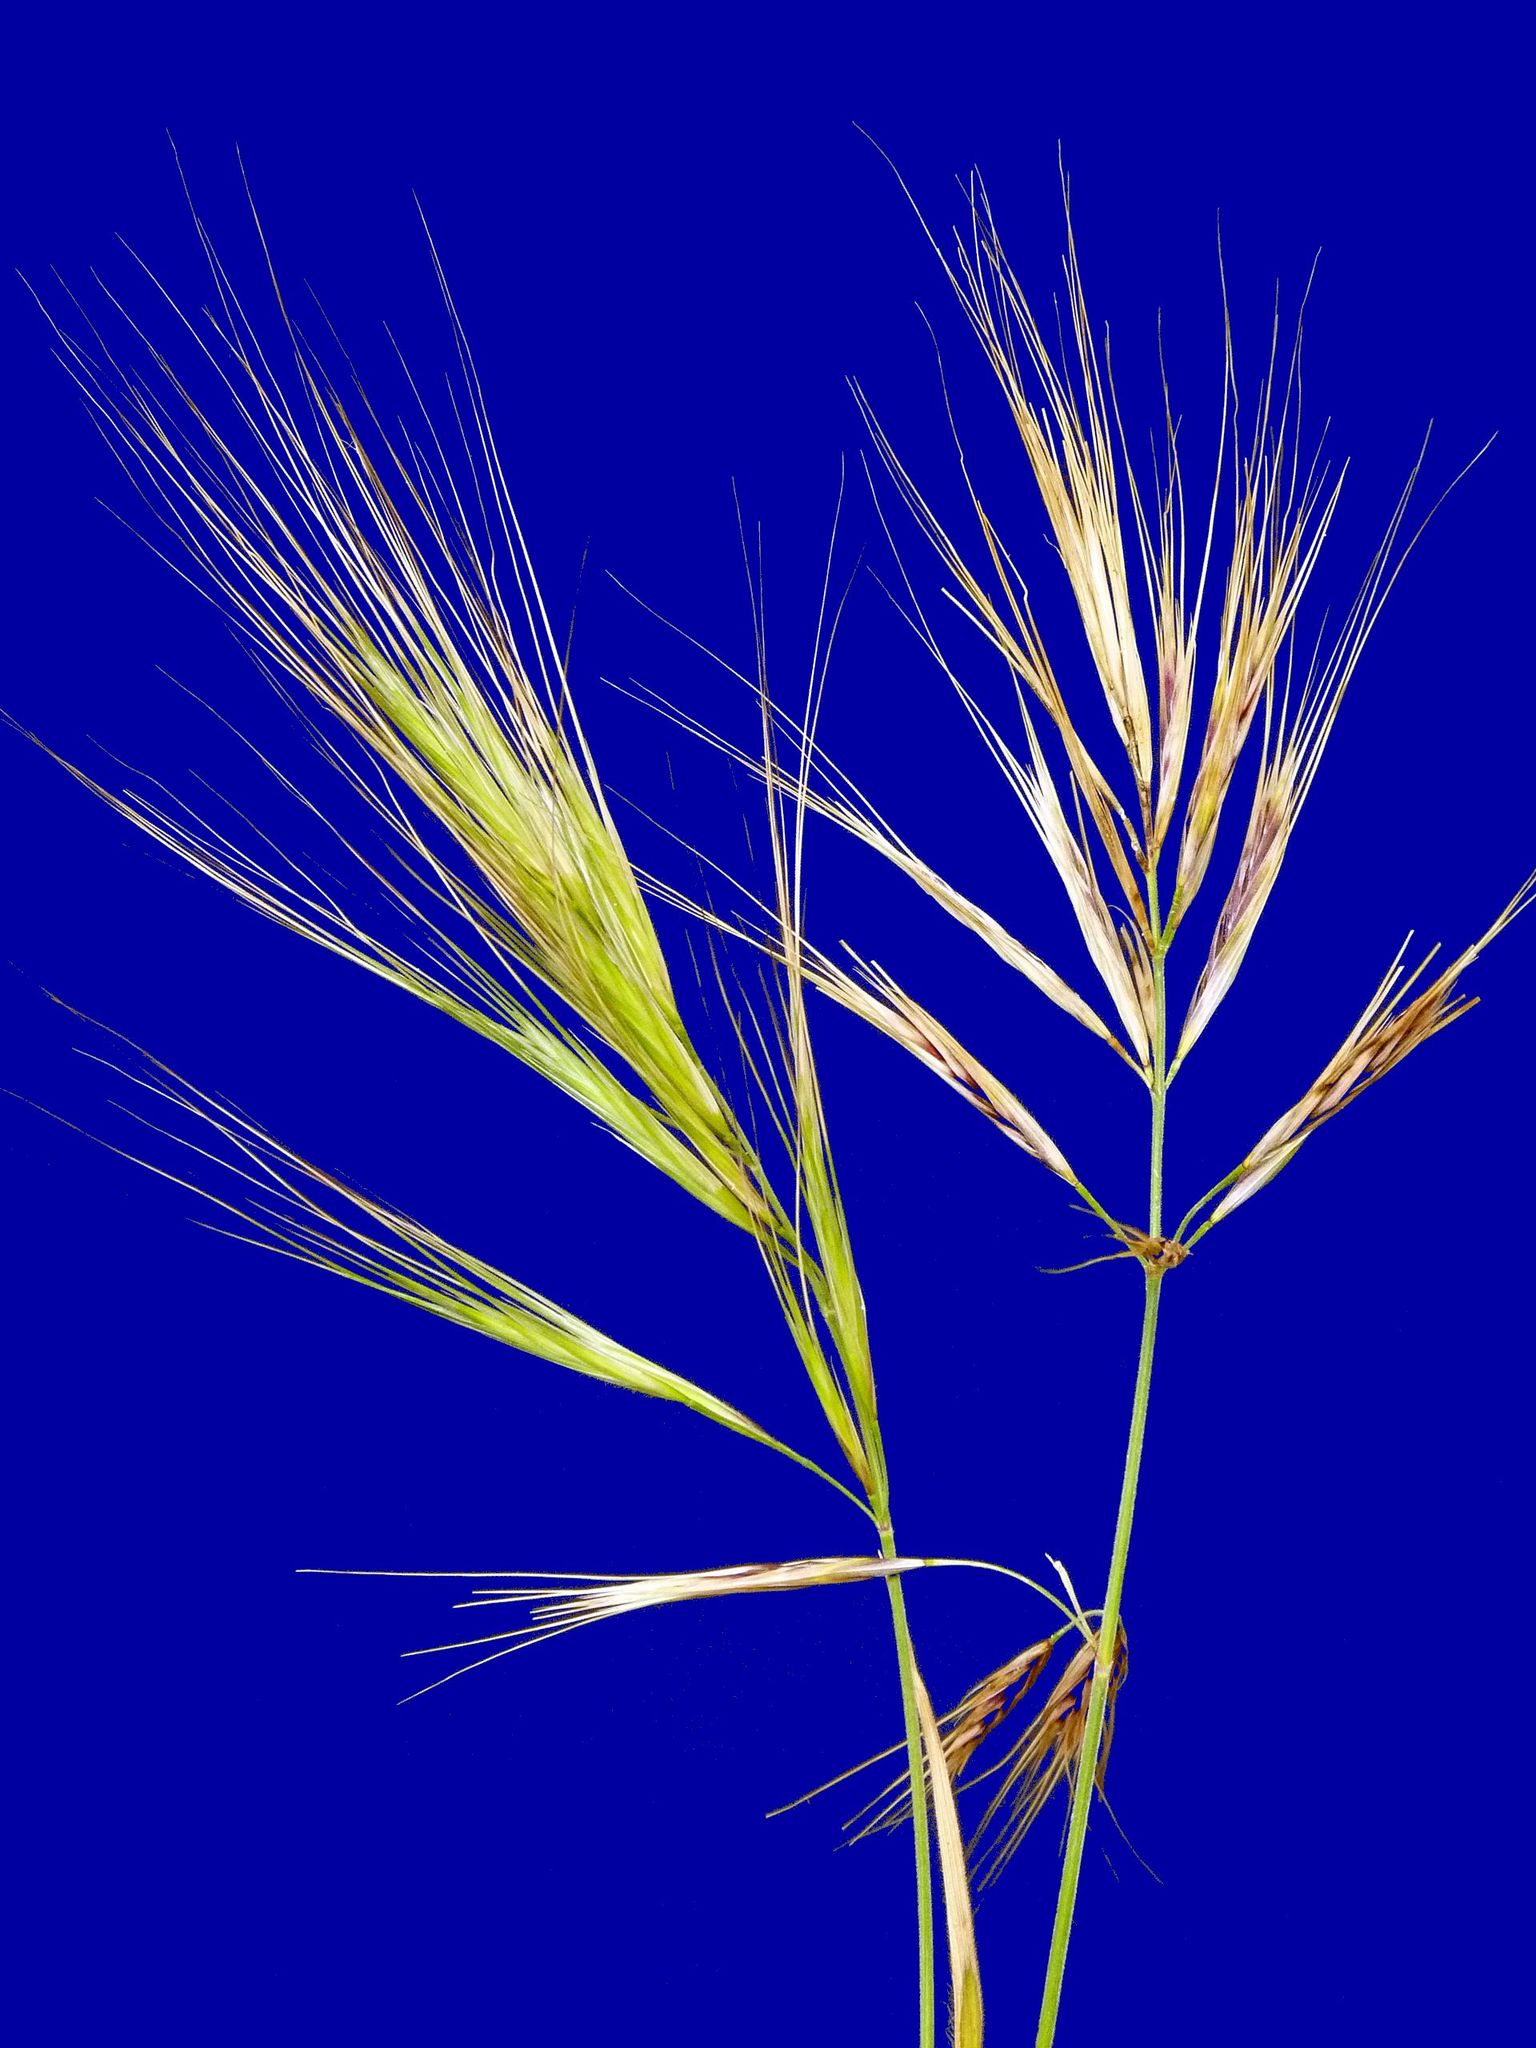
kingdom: Plantae
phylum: Tracheophyta
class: Liliopsida
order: Poales
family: Poaceae
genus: Bromus
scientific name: Bromus diandrus
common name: Ripgut brome
